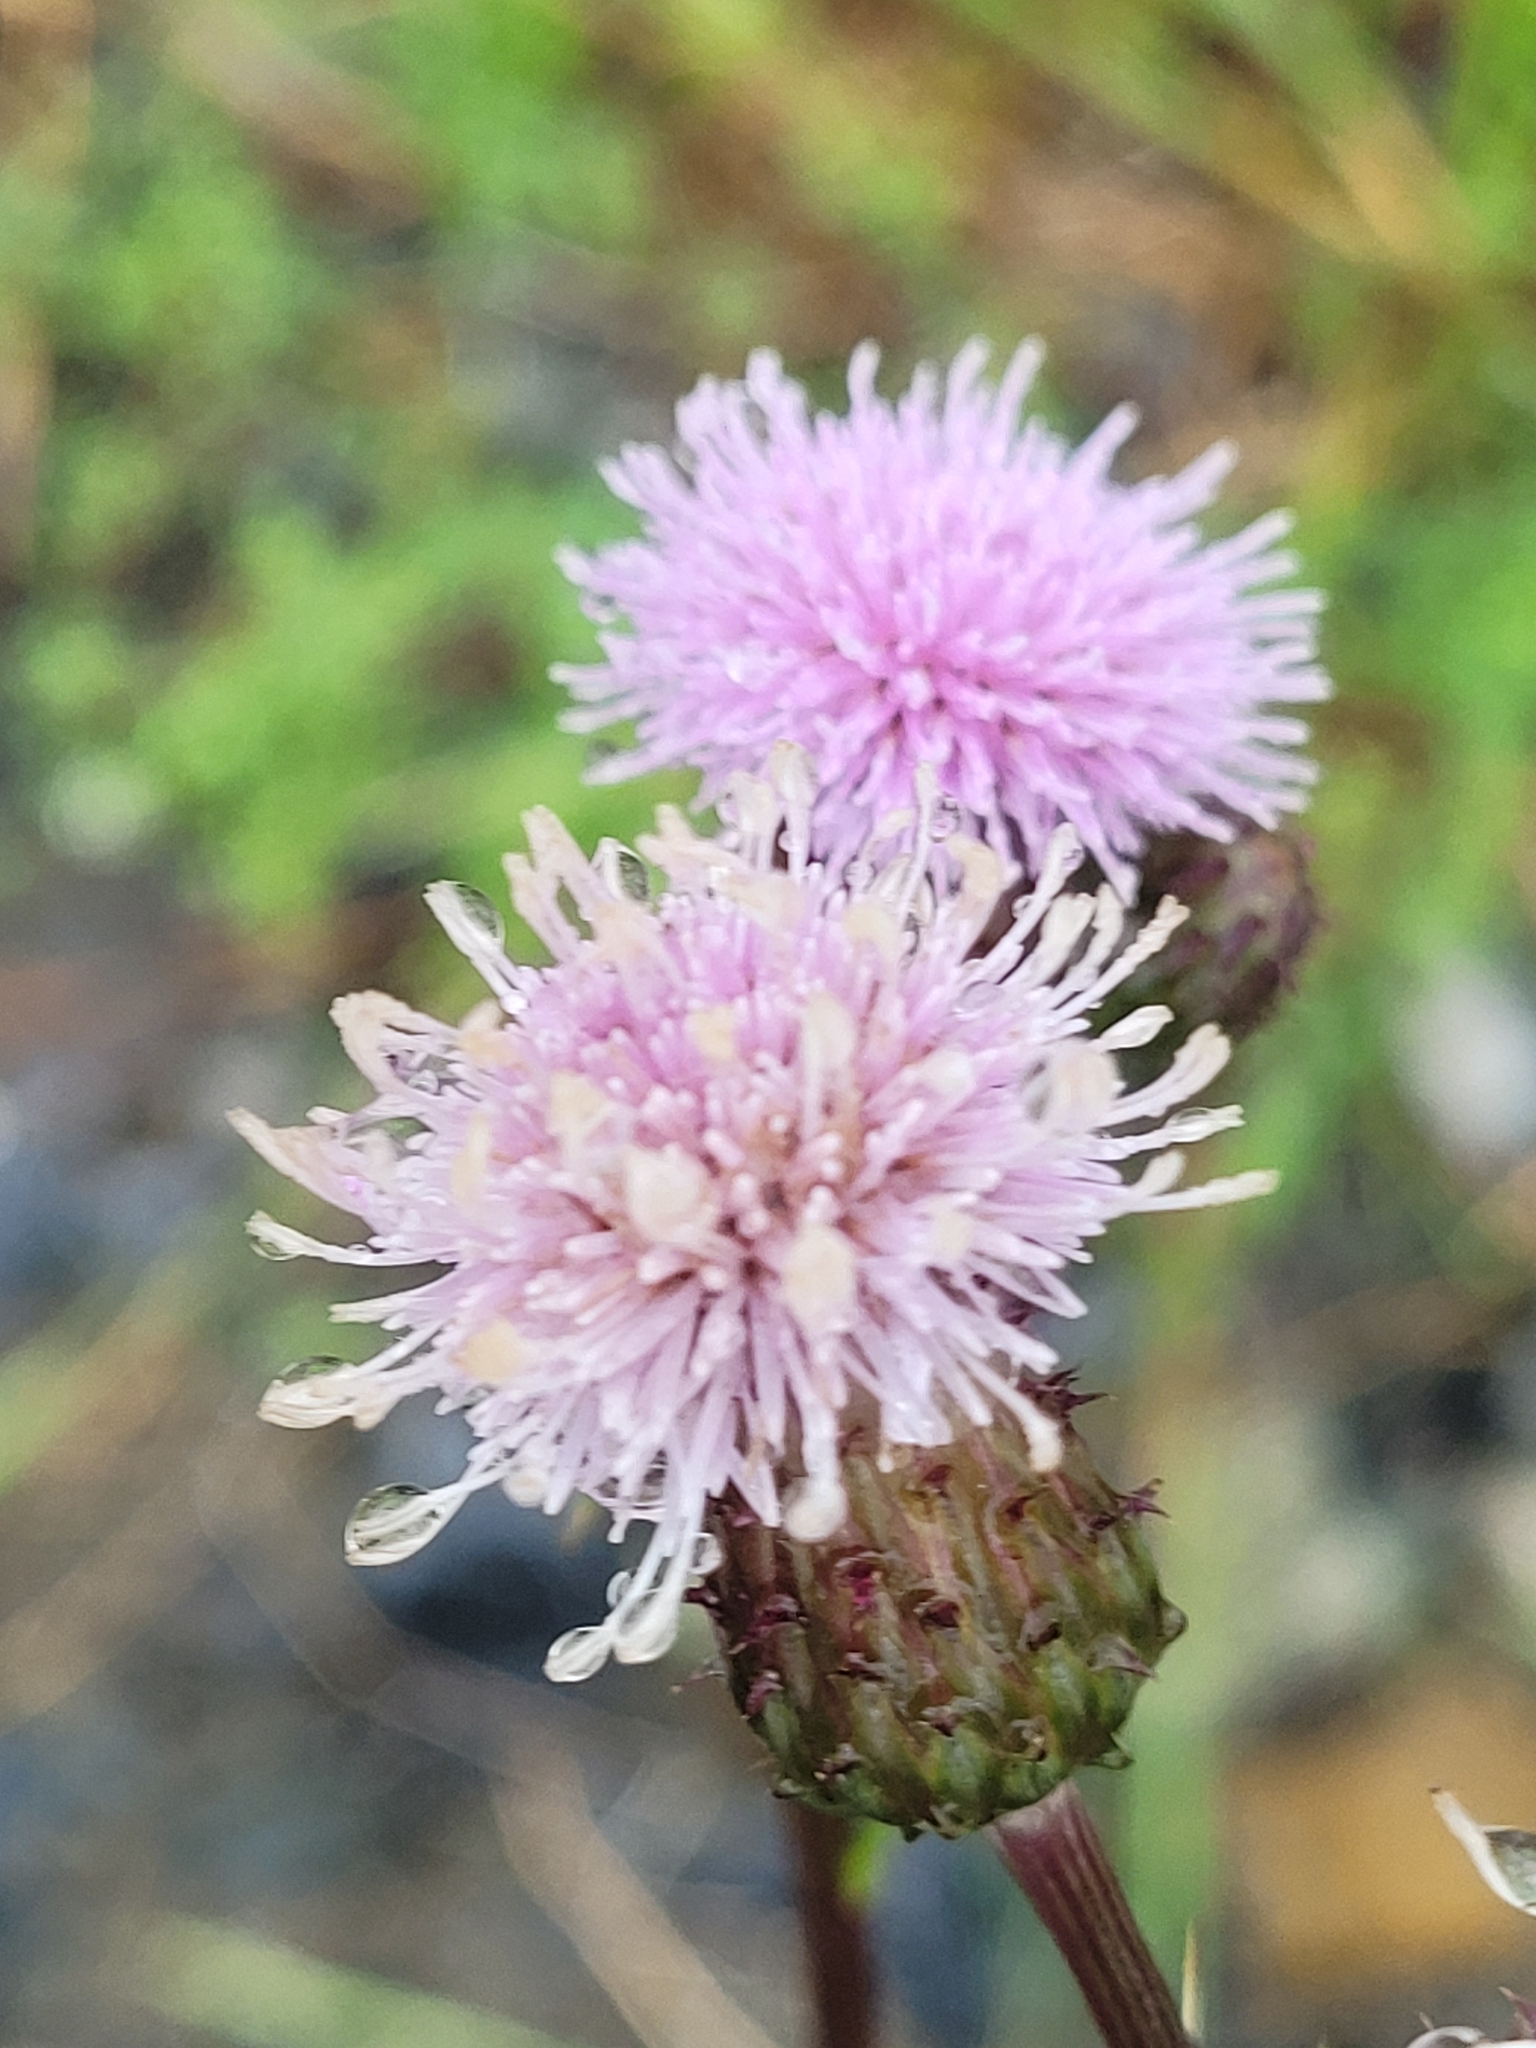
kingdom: Plantae
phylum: Tracheophyta
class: Magnoliopsida
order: Asterales
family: Asteraceae
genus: Cirsium
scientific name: Cirsium arvense
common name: Creeping thistle
